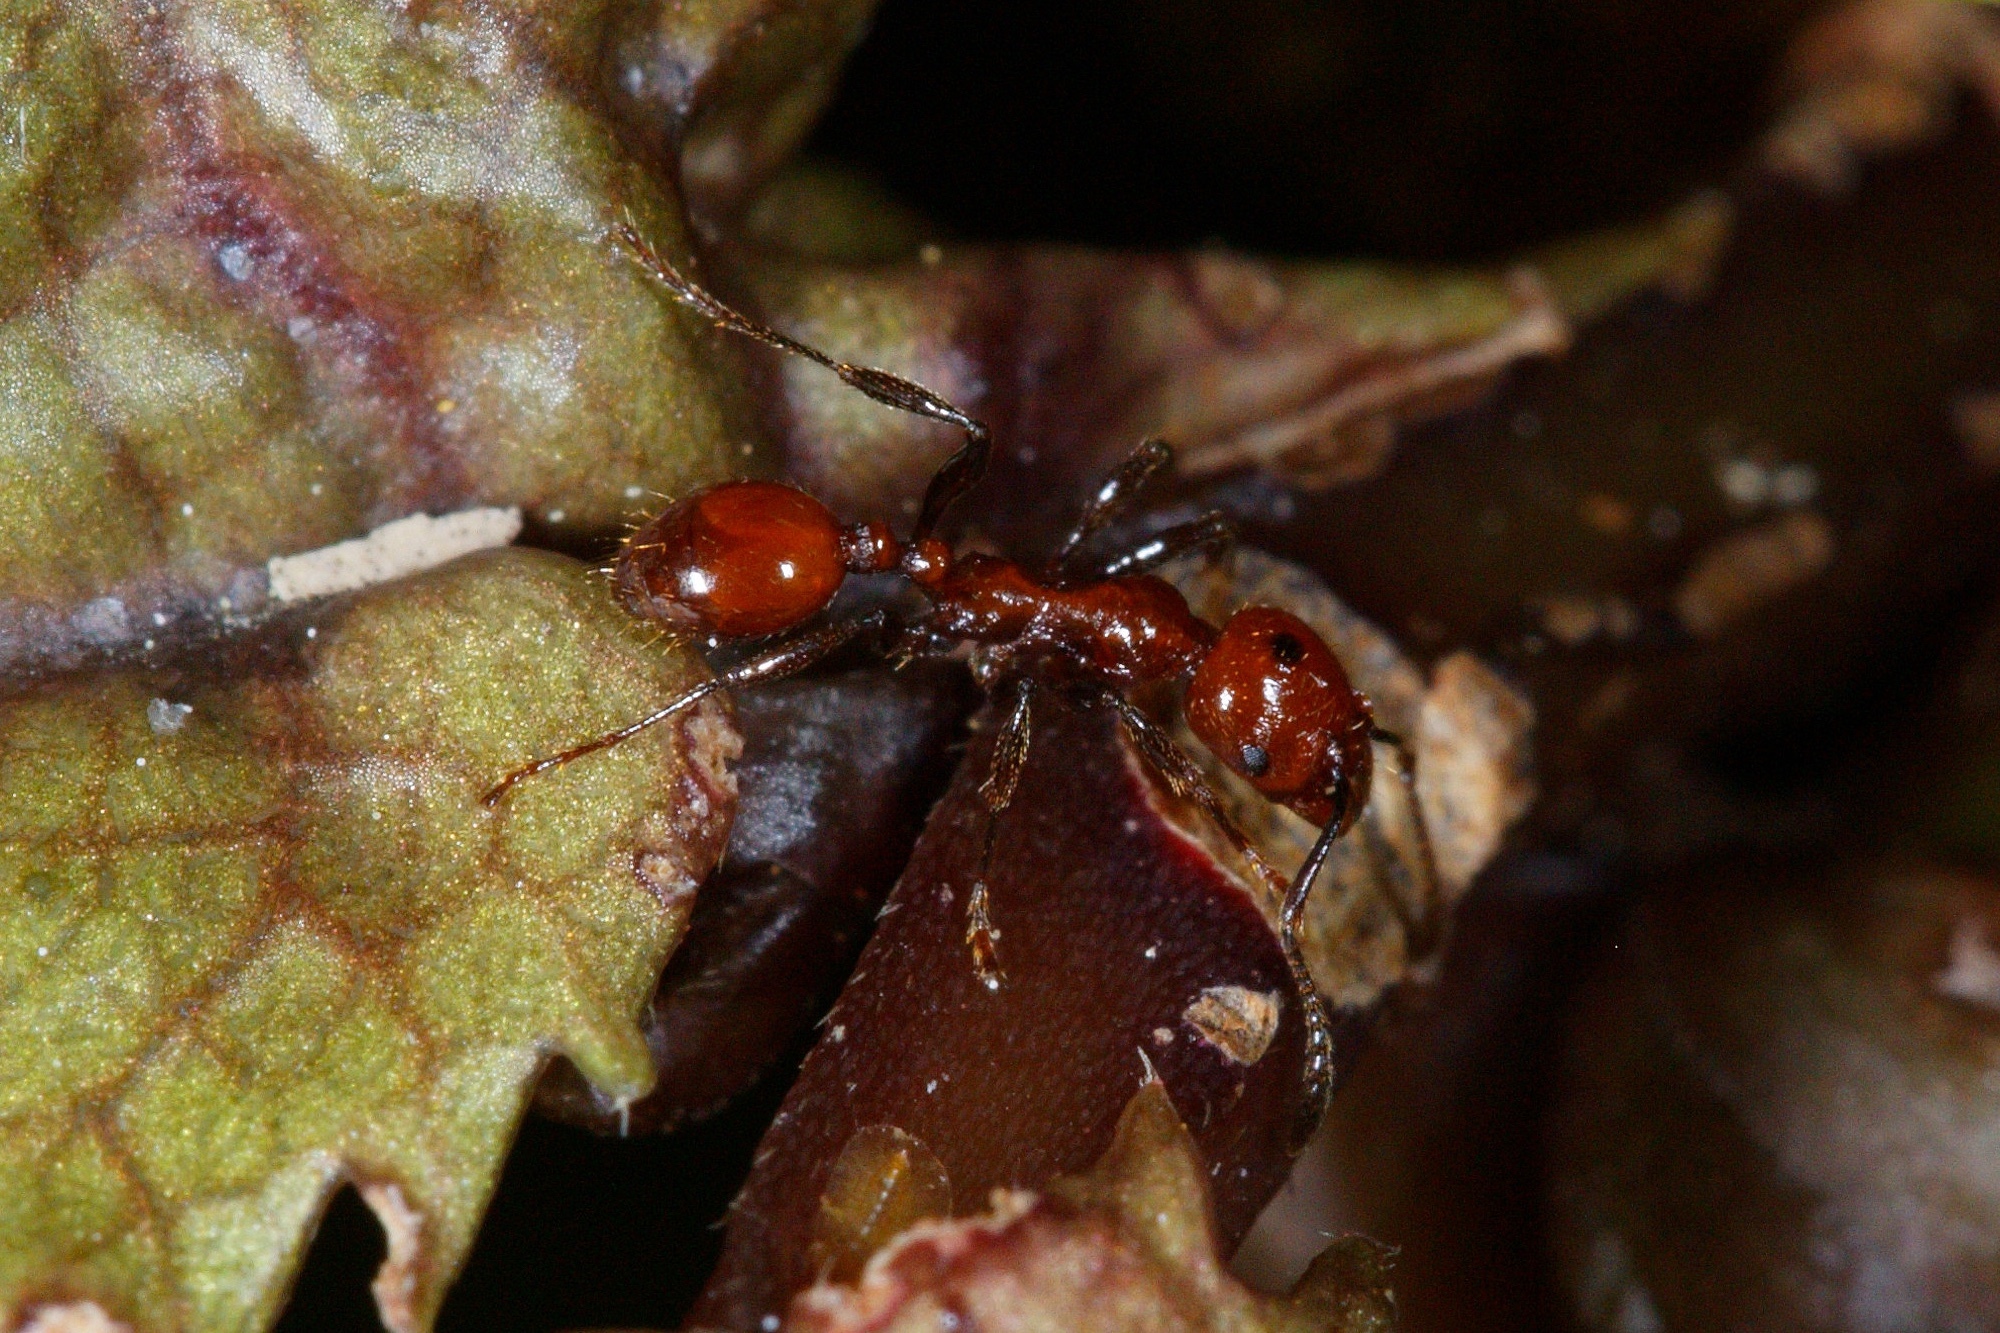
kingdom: Animalia
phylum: Arthropoda
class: Insecta
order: Hymenoptera
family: Formicidae
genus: Huberia
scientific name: Huberia striata
